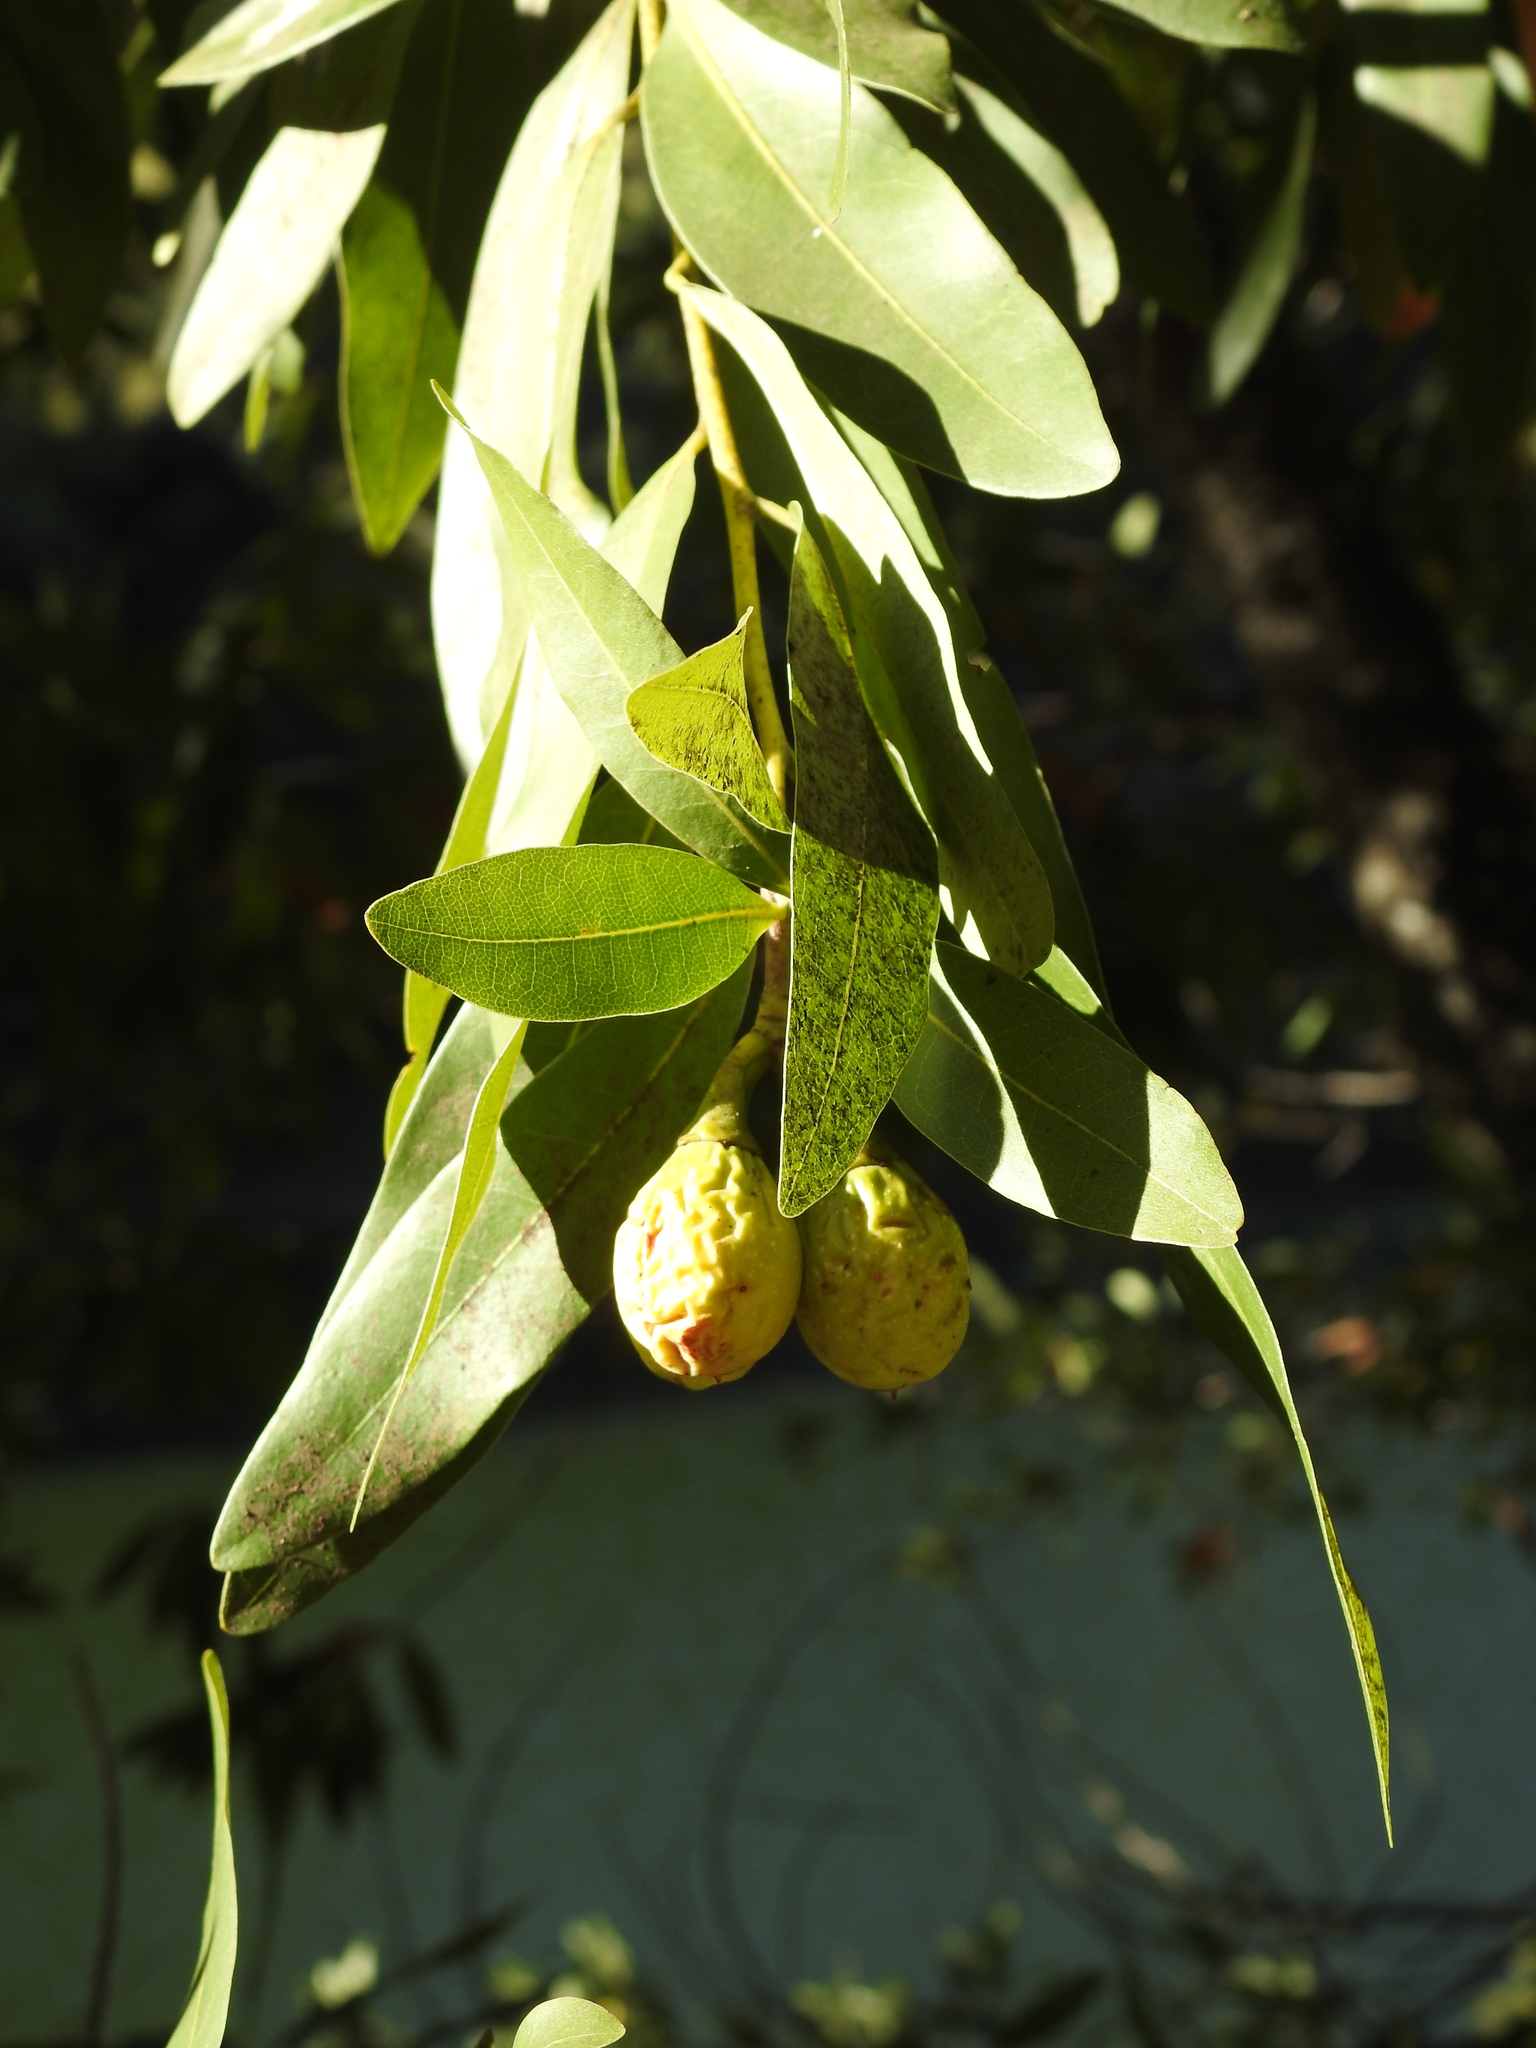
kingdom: Plantae
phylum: Tracheophyta
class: Magnoliopsida
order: Laurales
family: Lauraceae
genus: Umbellularia
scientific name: Umbellularia californica
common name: California bay
